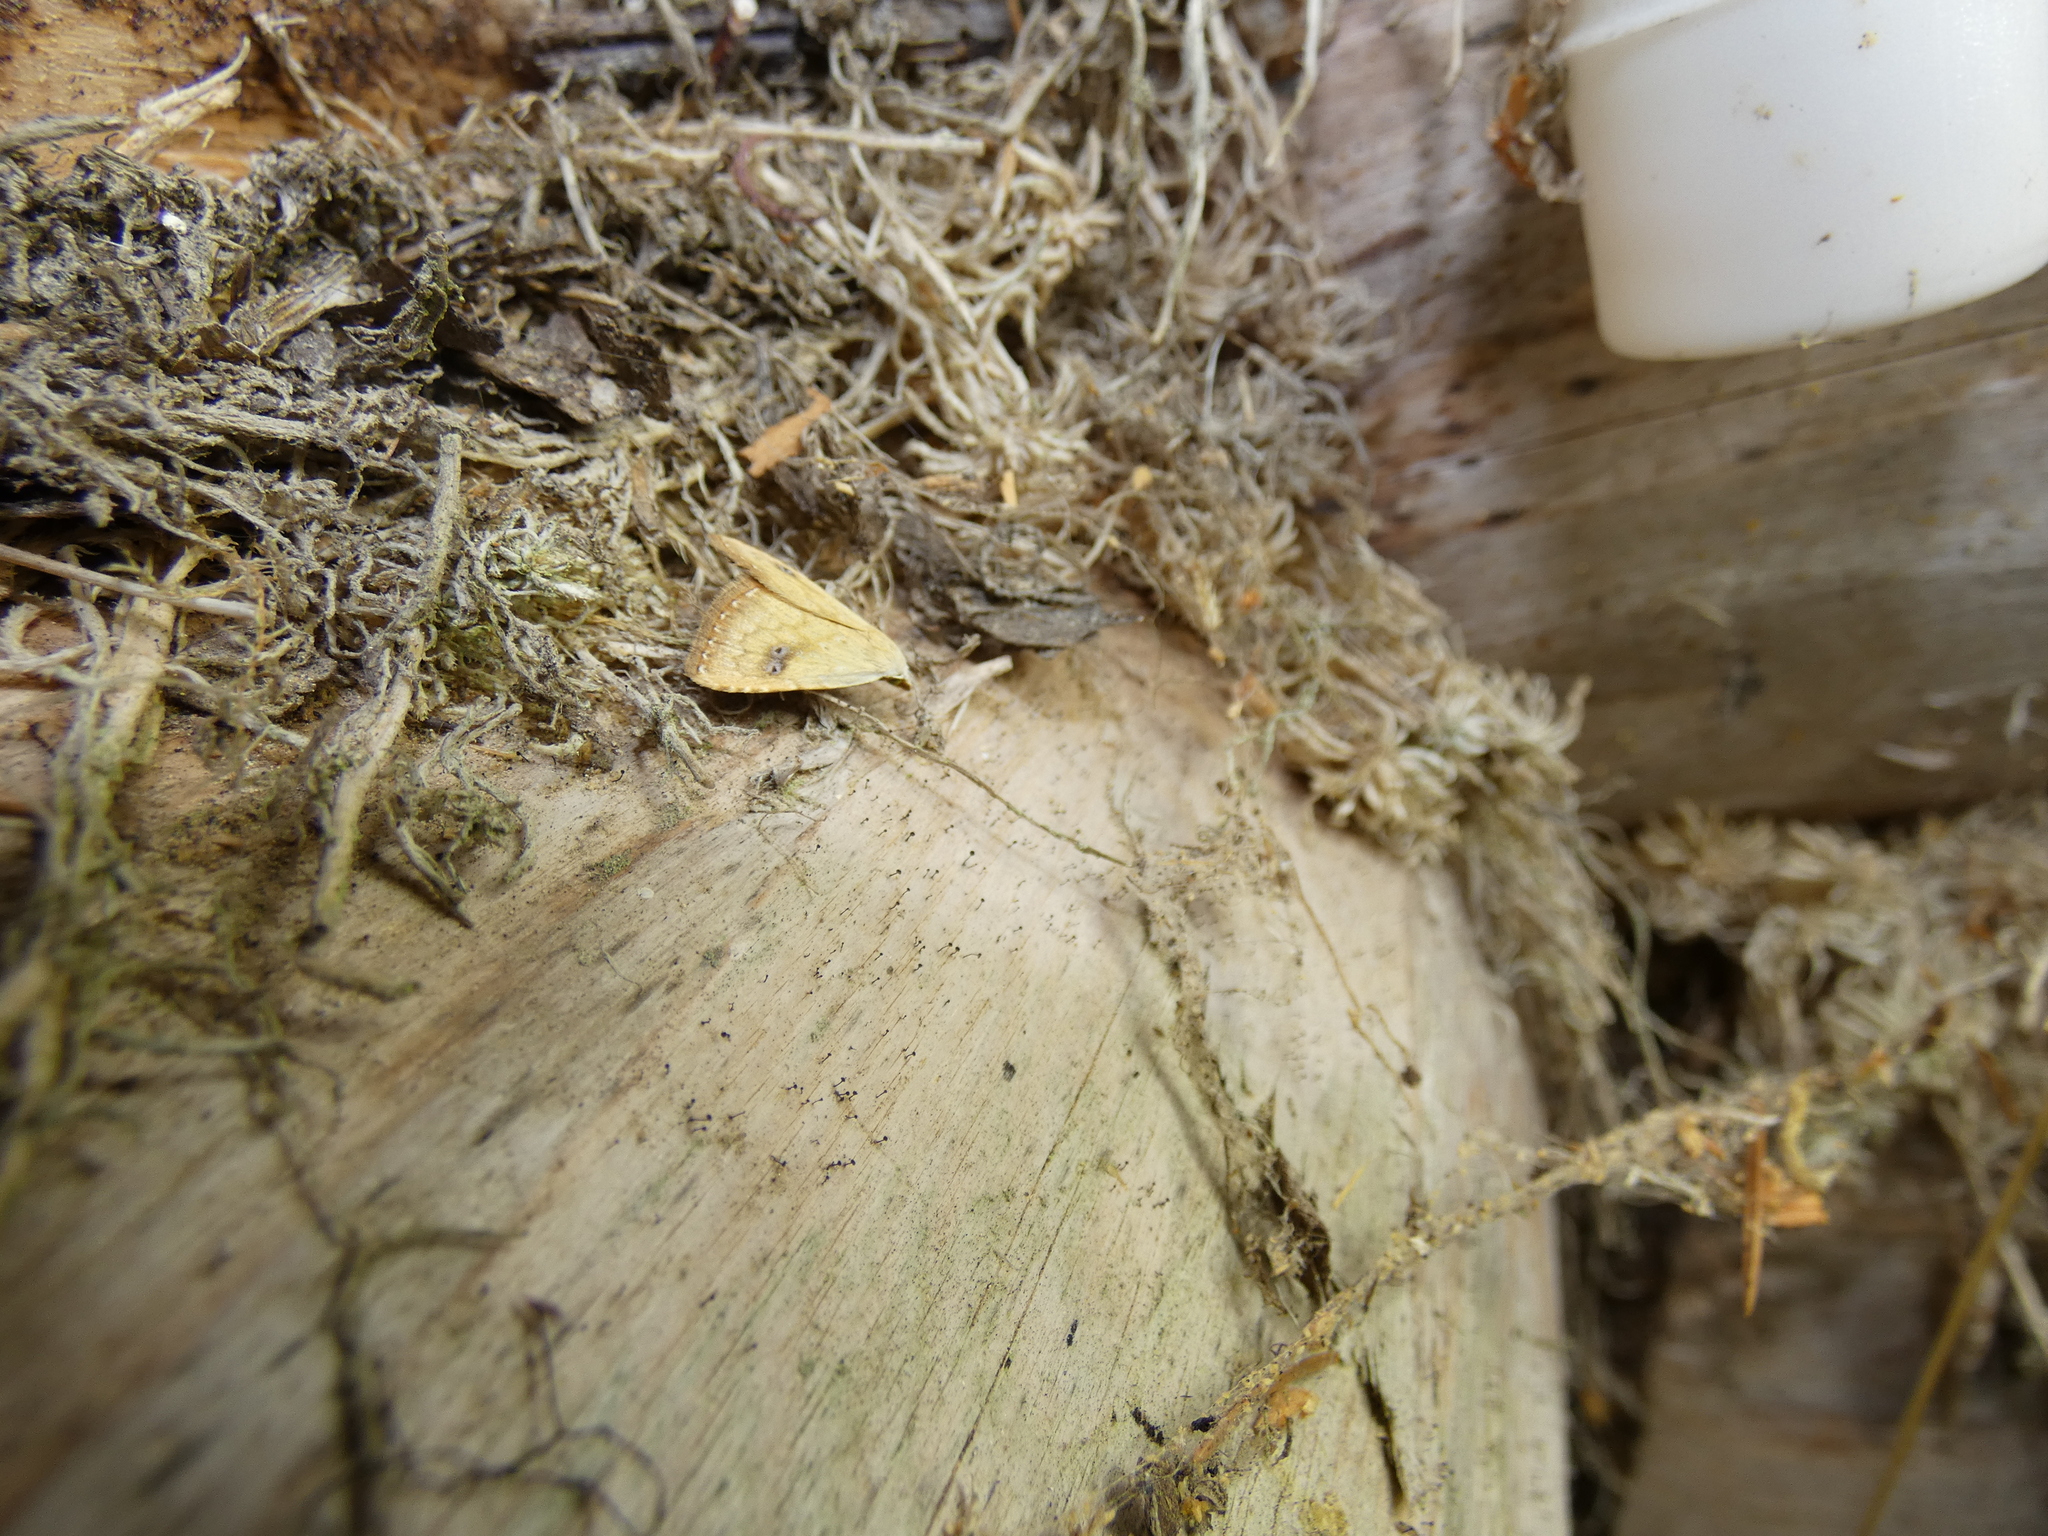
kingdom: Animalia
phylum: Arthropoda
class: Insecta
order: Lepidoptera
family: Erebidae
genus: Rivula
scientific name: Rivula sericealis
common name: Straw dot
